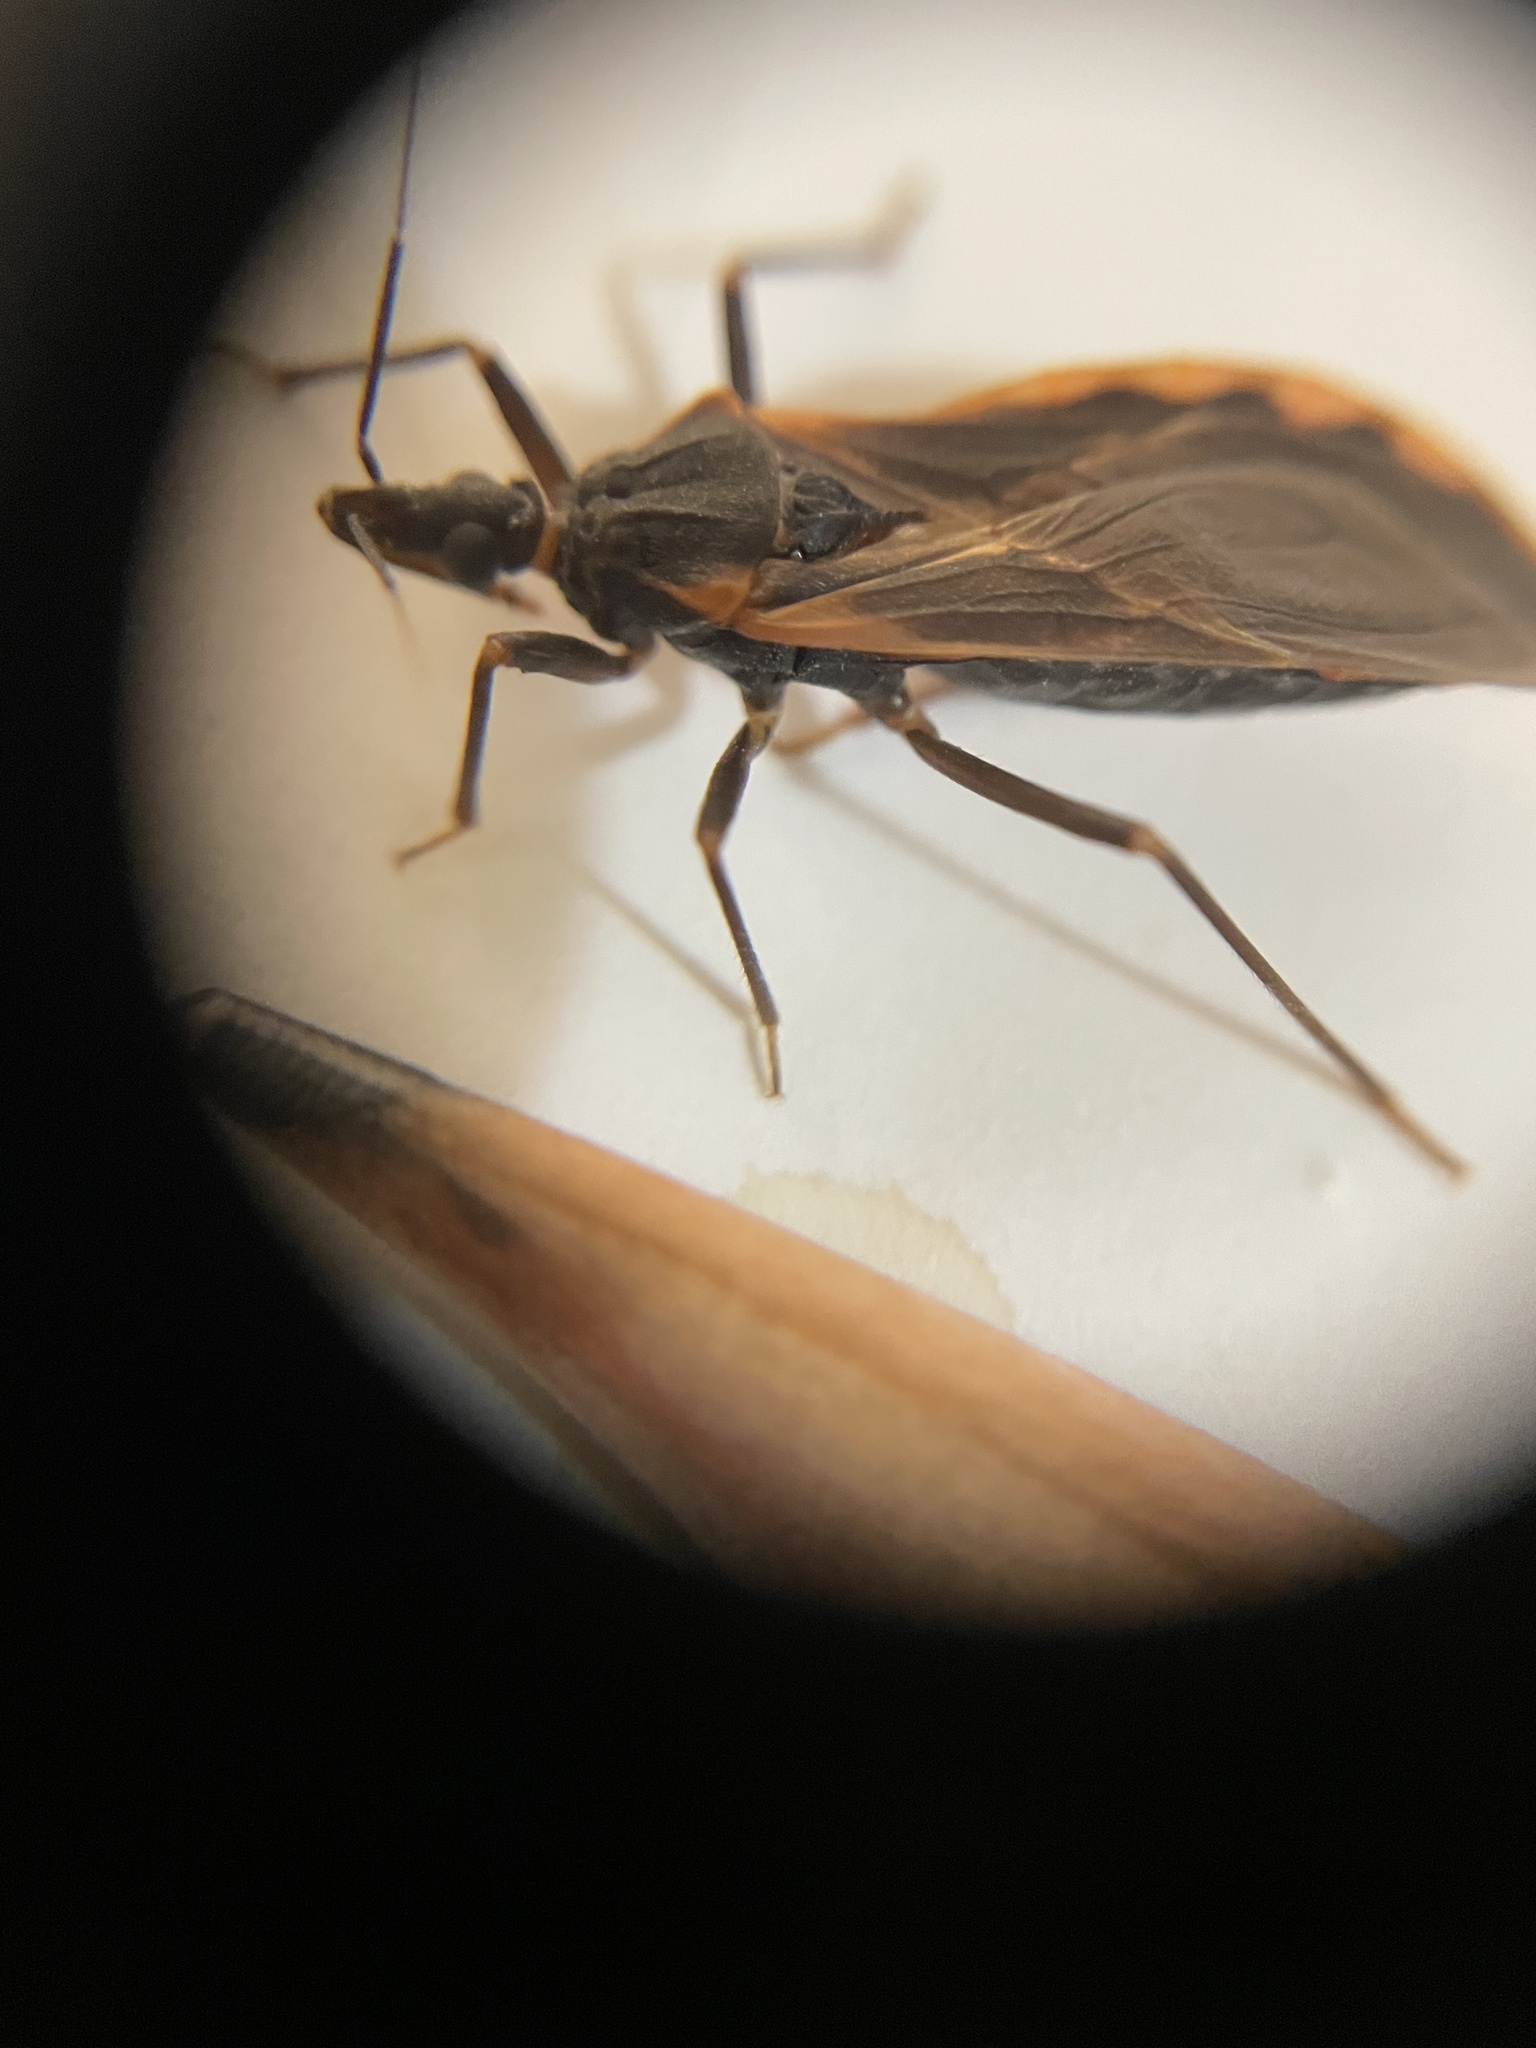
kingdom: Animalia
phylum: Arthropoda
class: Insecta
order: Hemiptera
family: Reduviidae
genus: Triatoma
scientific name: Triatoma rubida
